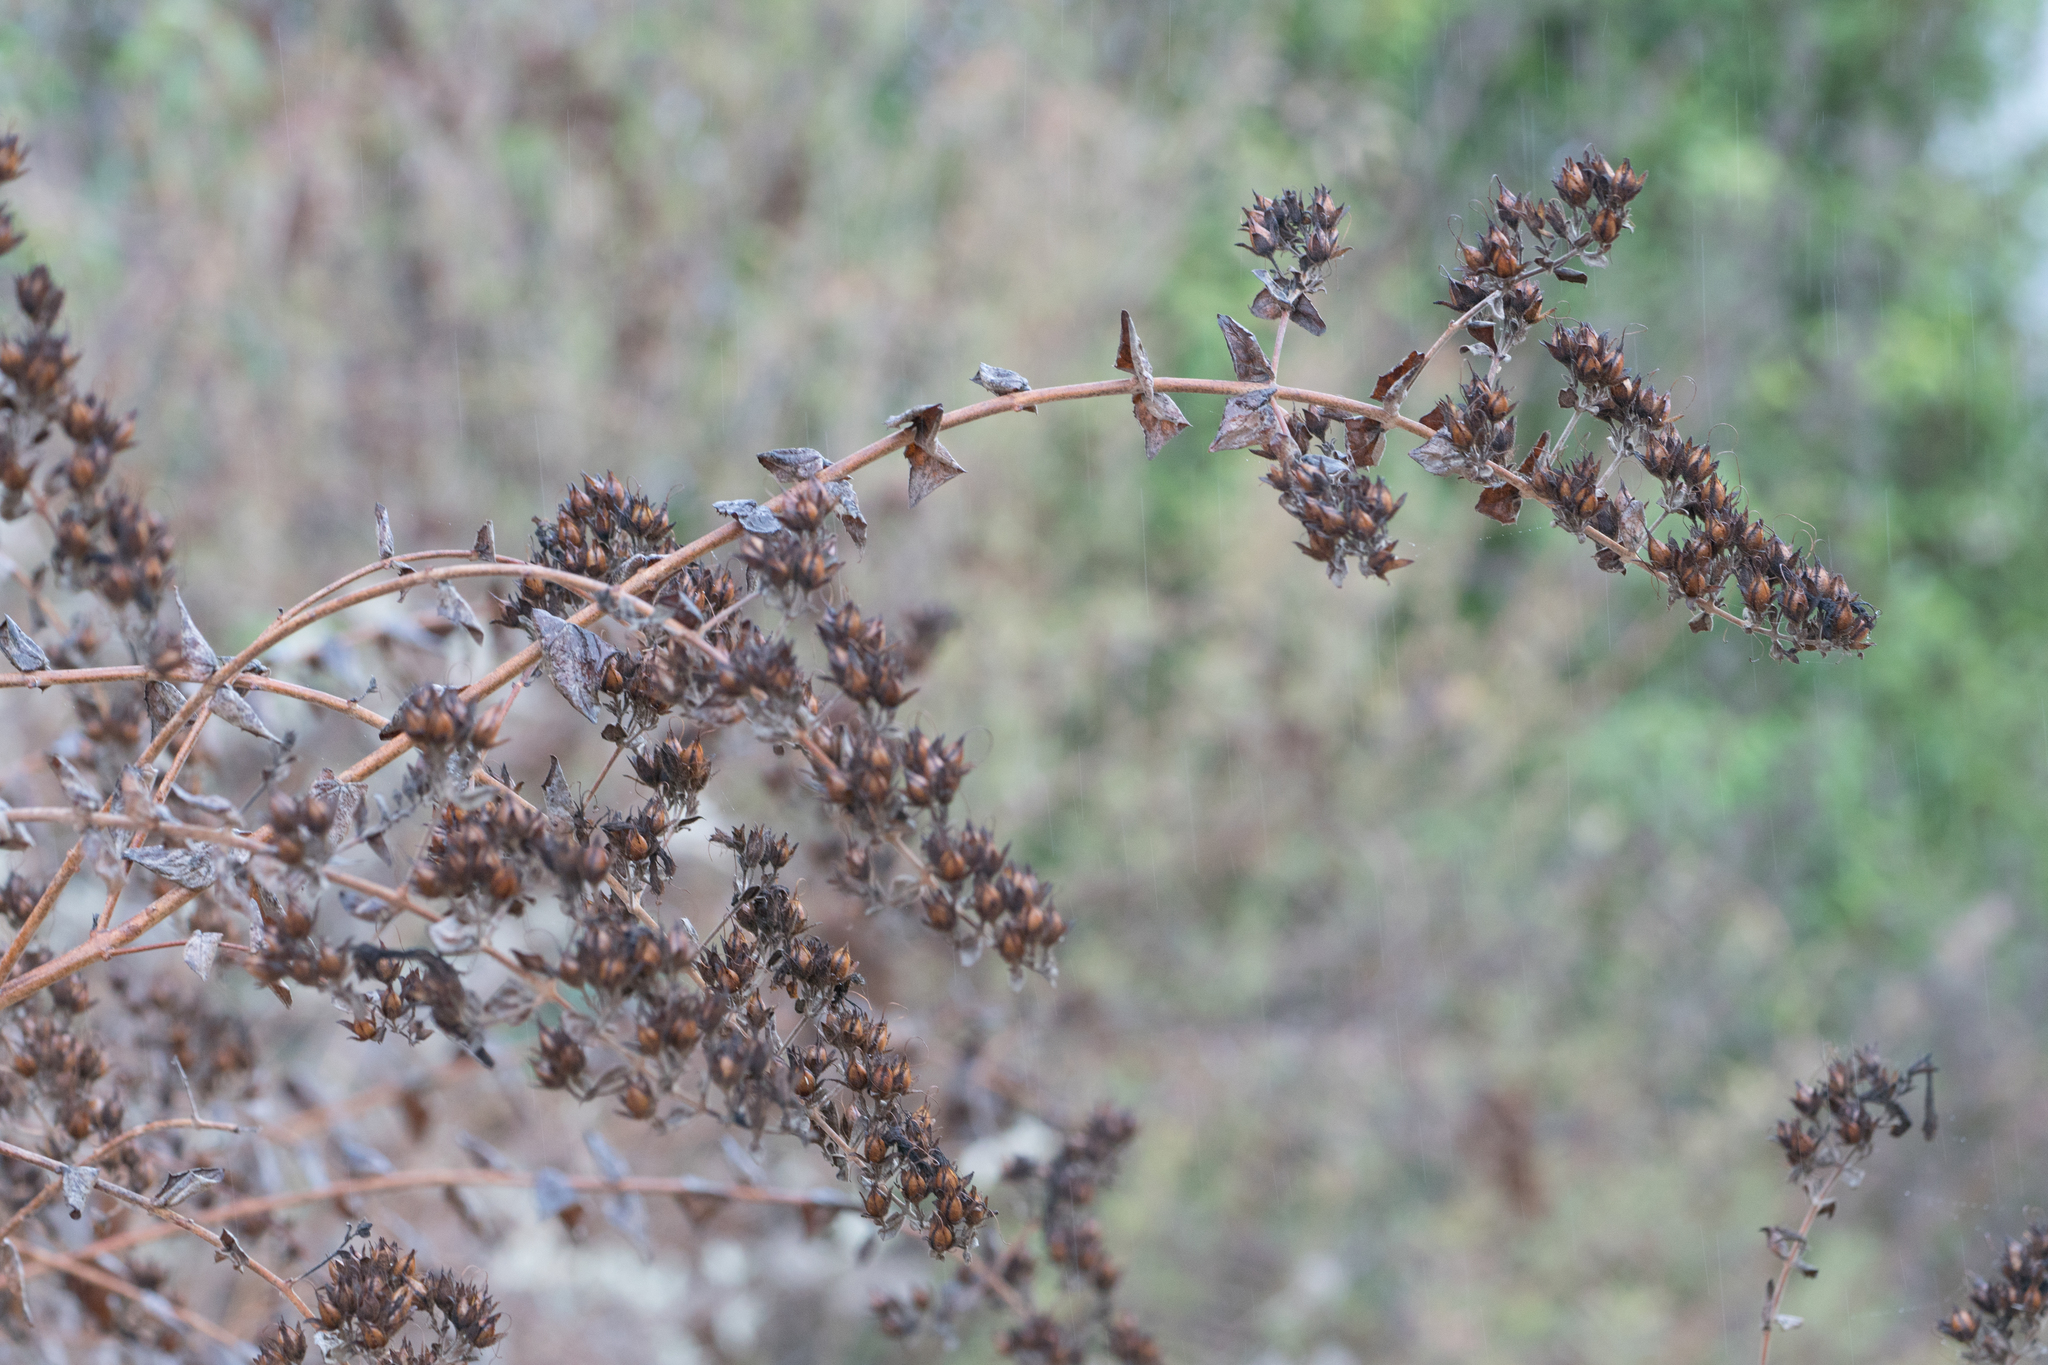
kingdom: Plantae
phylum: Tracheophyta
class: Magnoliopsida
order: Lamiales
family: Plantaginaceae
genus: Keckiella
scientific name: Keckiella cordifolia
